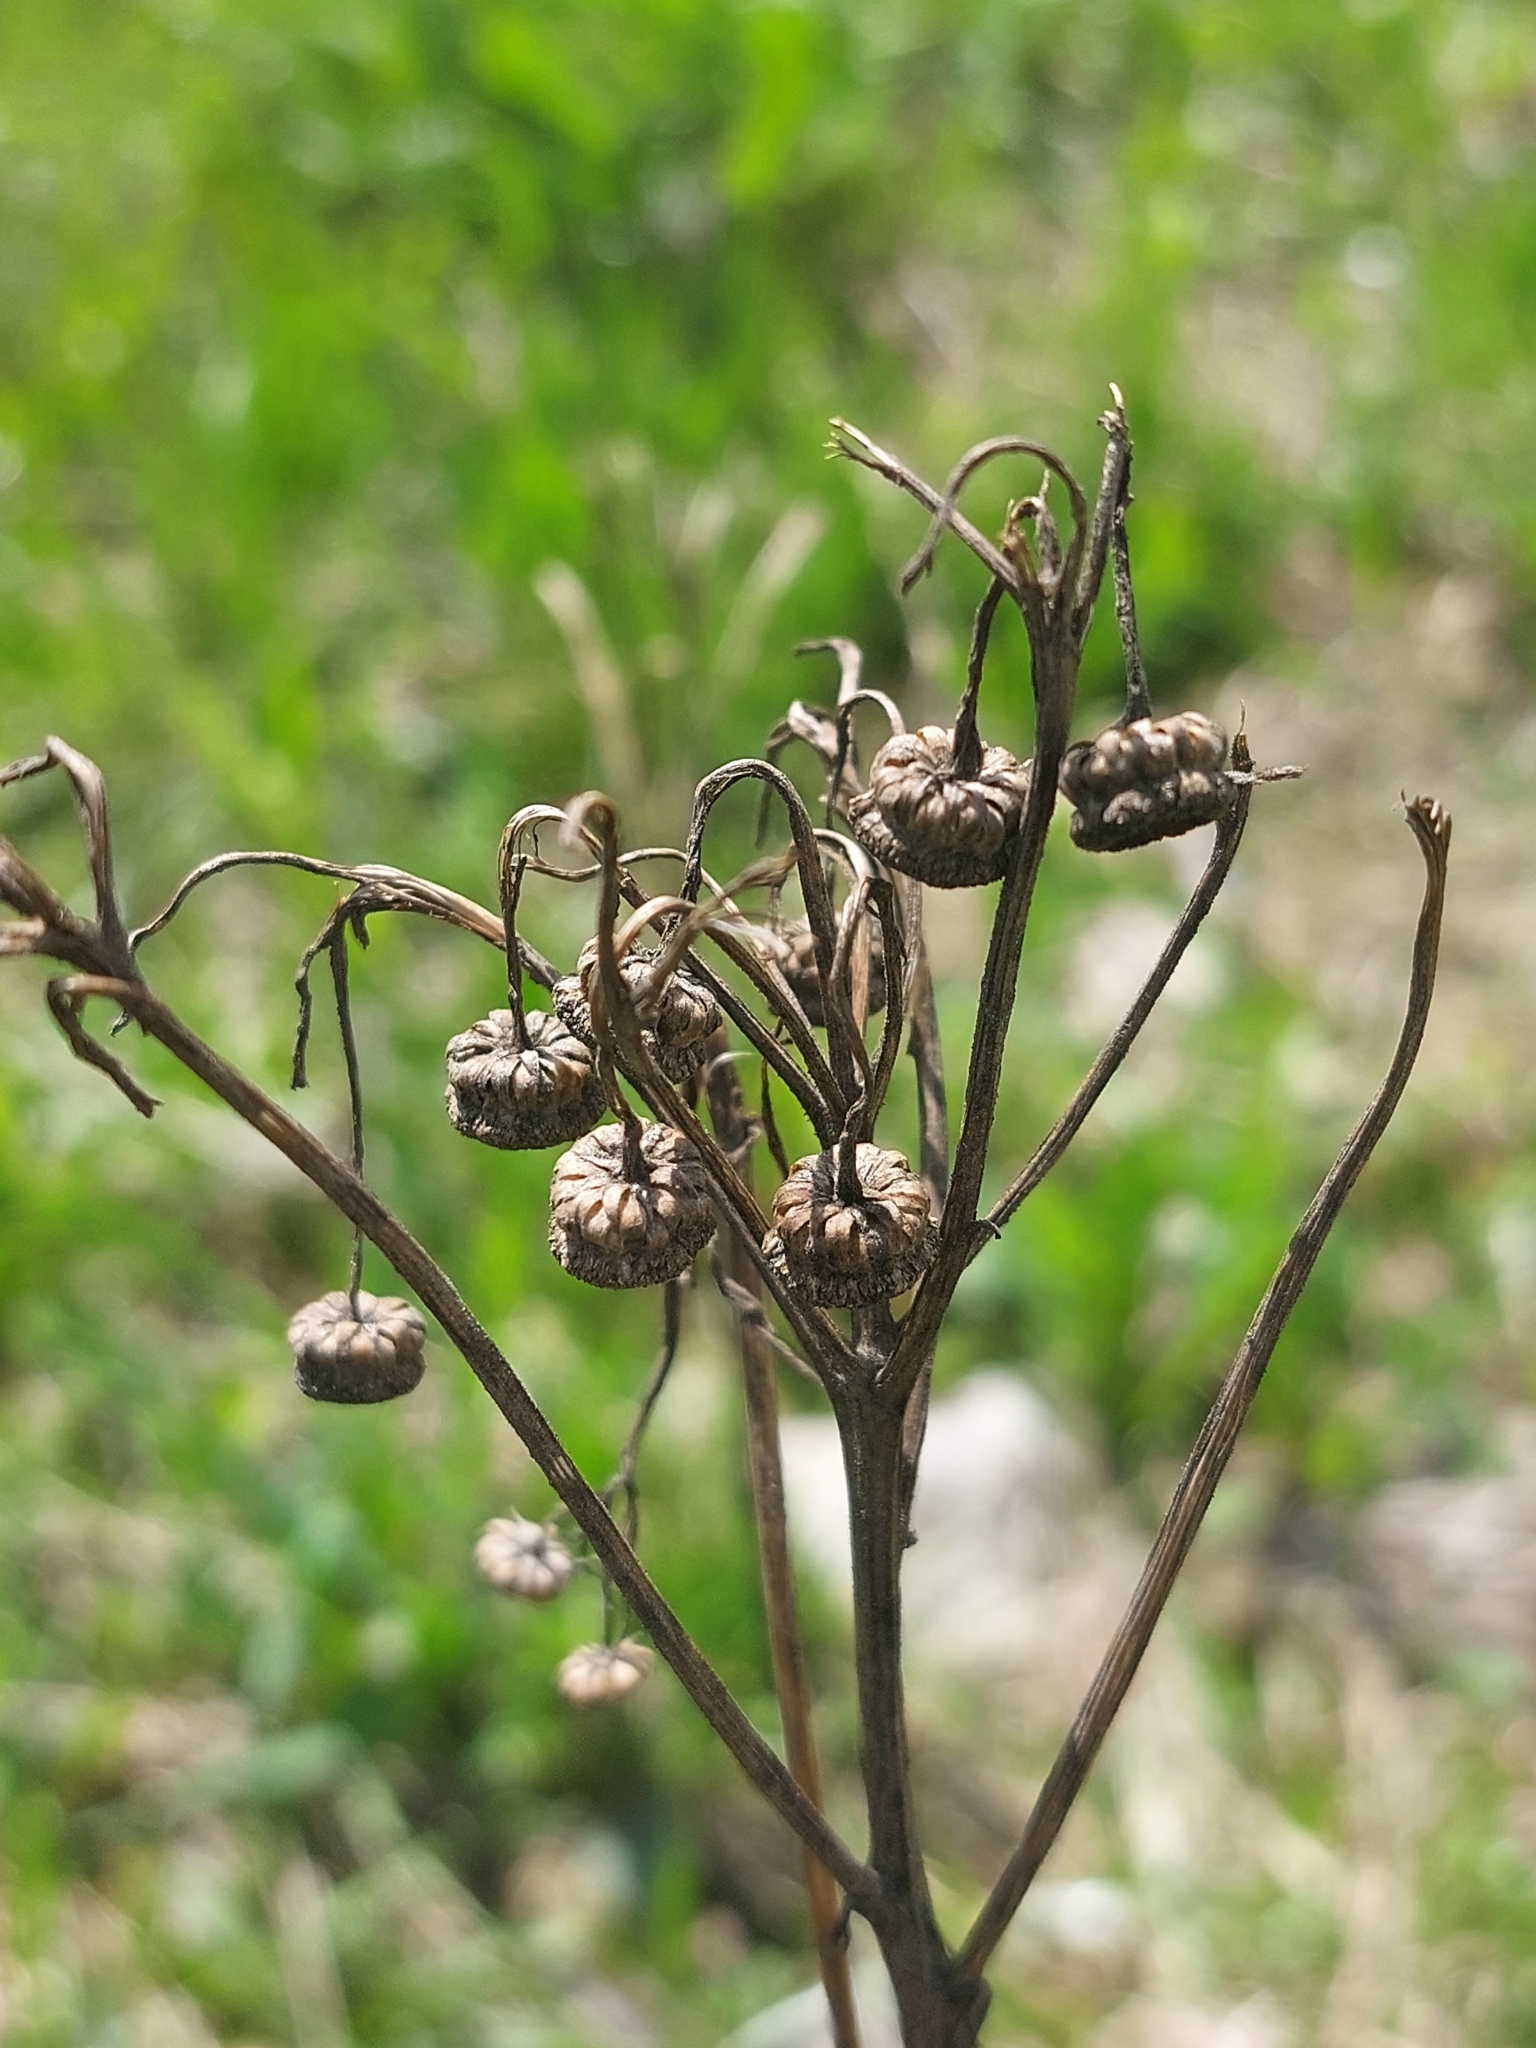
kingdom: Plantae
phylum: Tracheophyta
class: Magnoliopsida
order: Asterales
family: Asteraceae
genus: Tanacetum
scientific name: Tanacetum vulgare
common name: Common tansy
